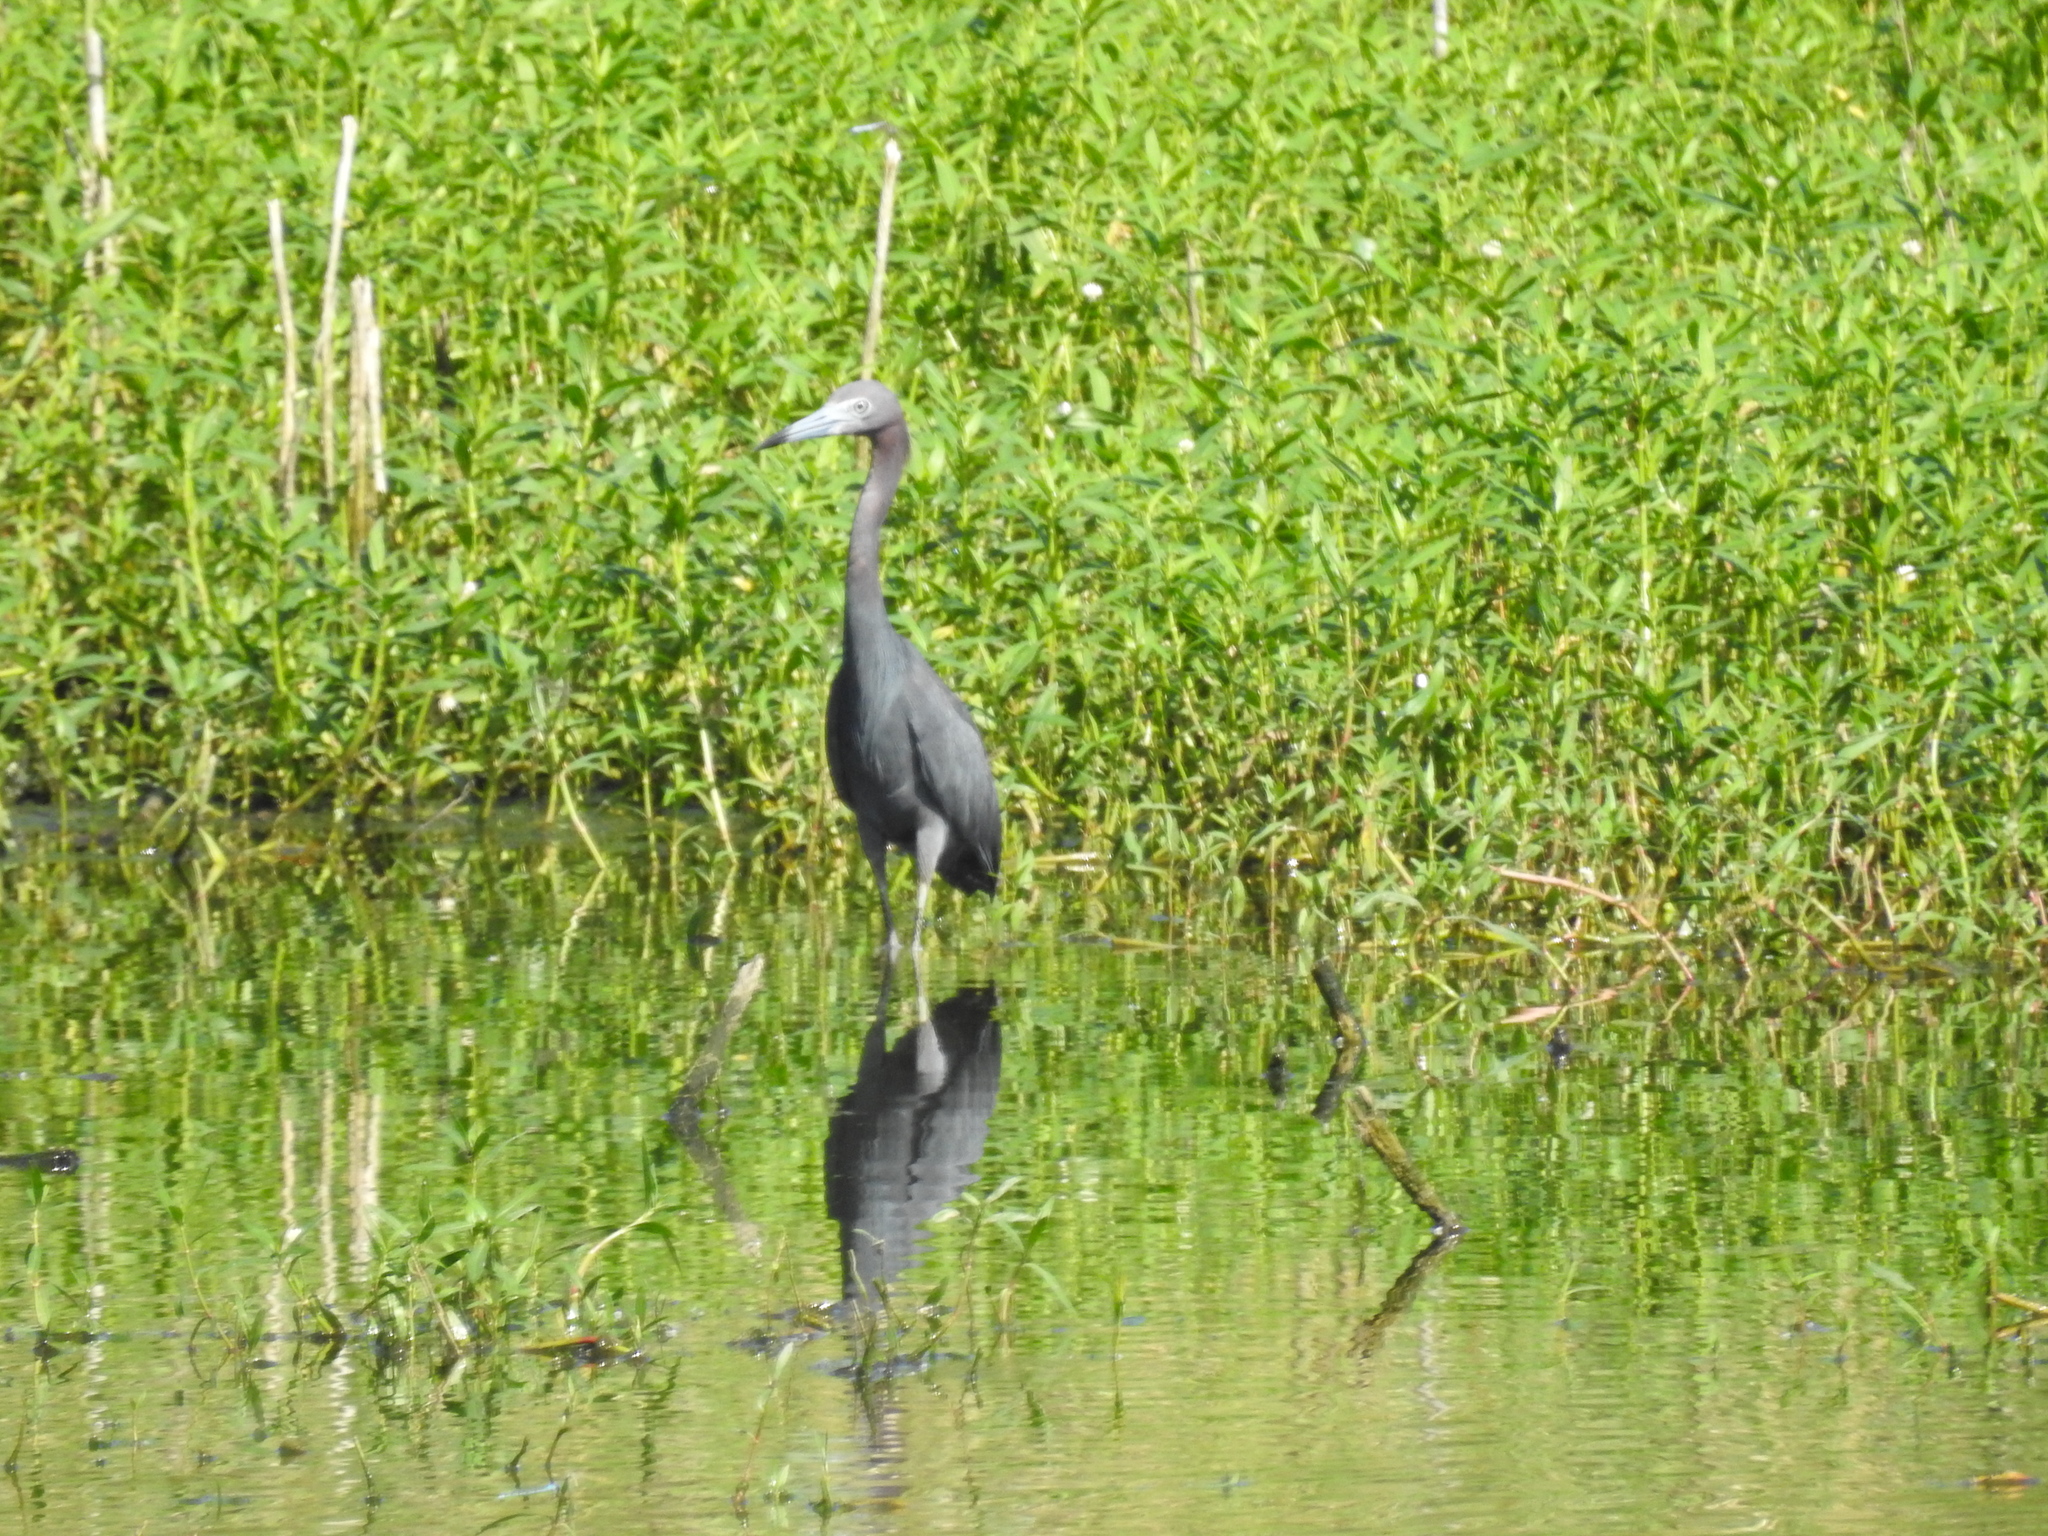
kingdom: Animalia
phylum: Chordata
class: Aves
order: Pelecaniformes
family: Ardeidae
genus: Egretta
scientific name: Egretta caerulea
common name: Little blue heron
